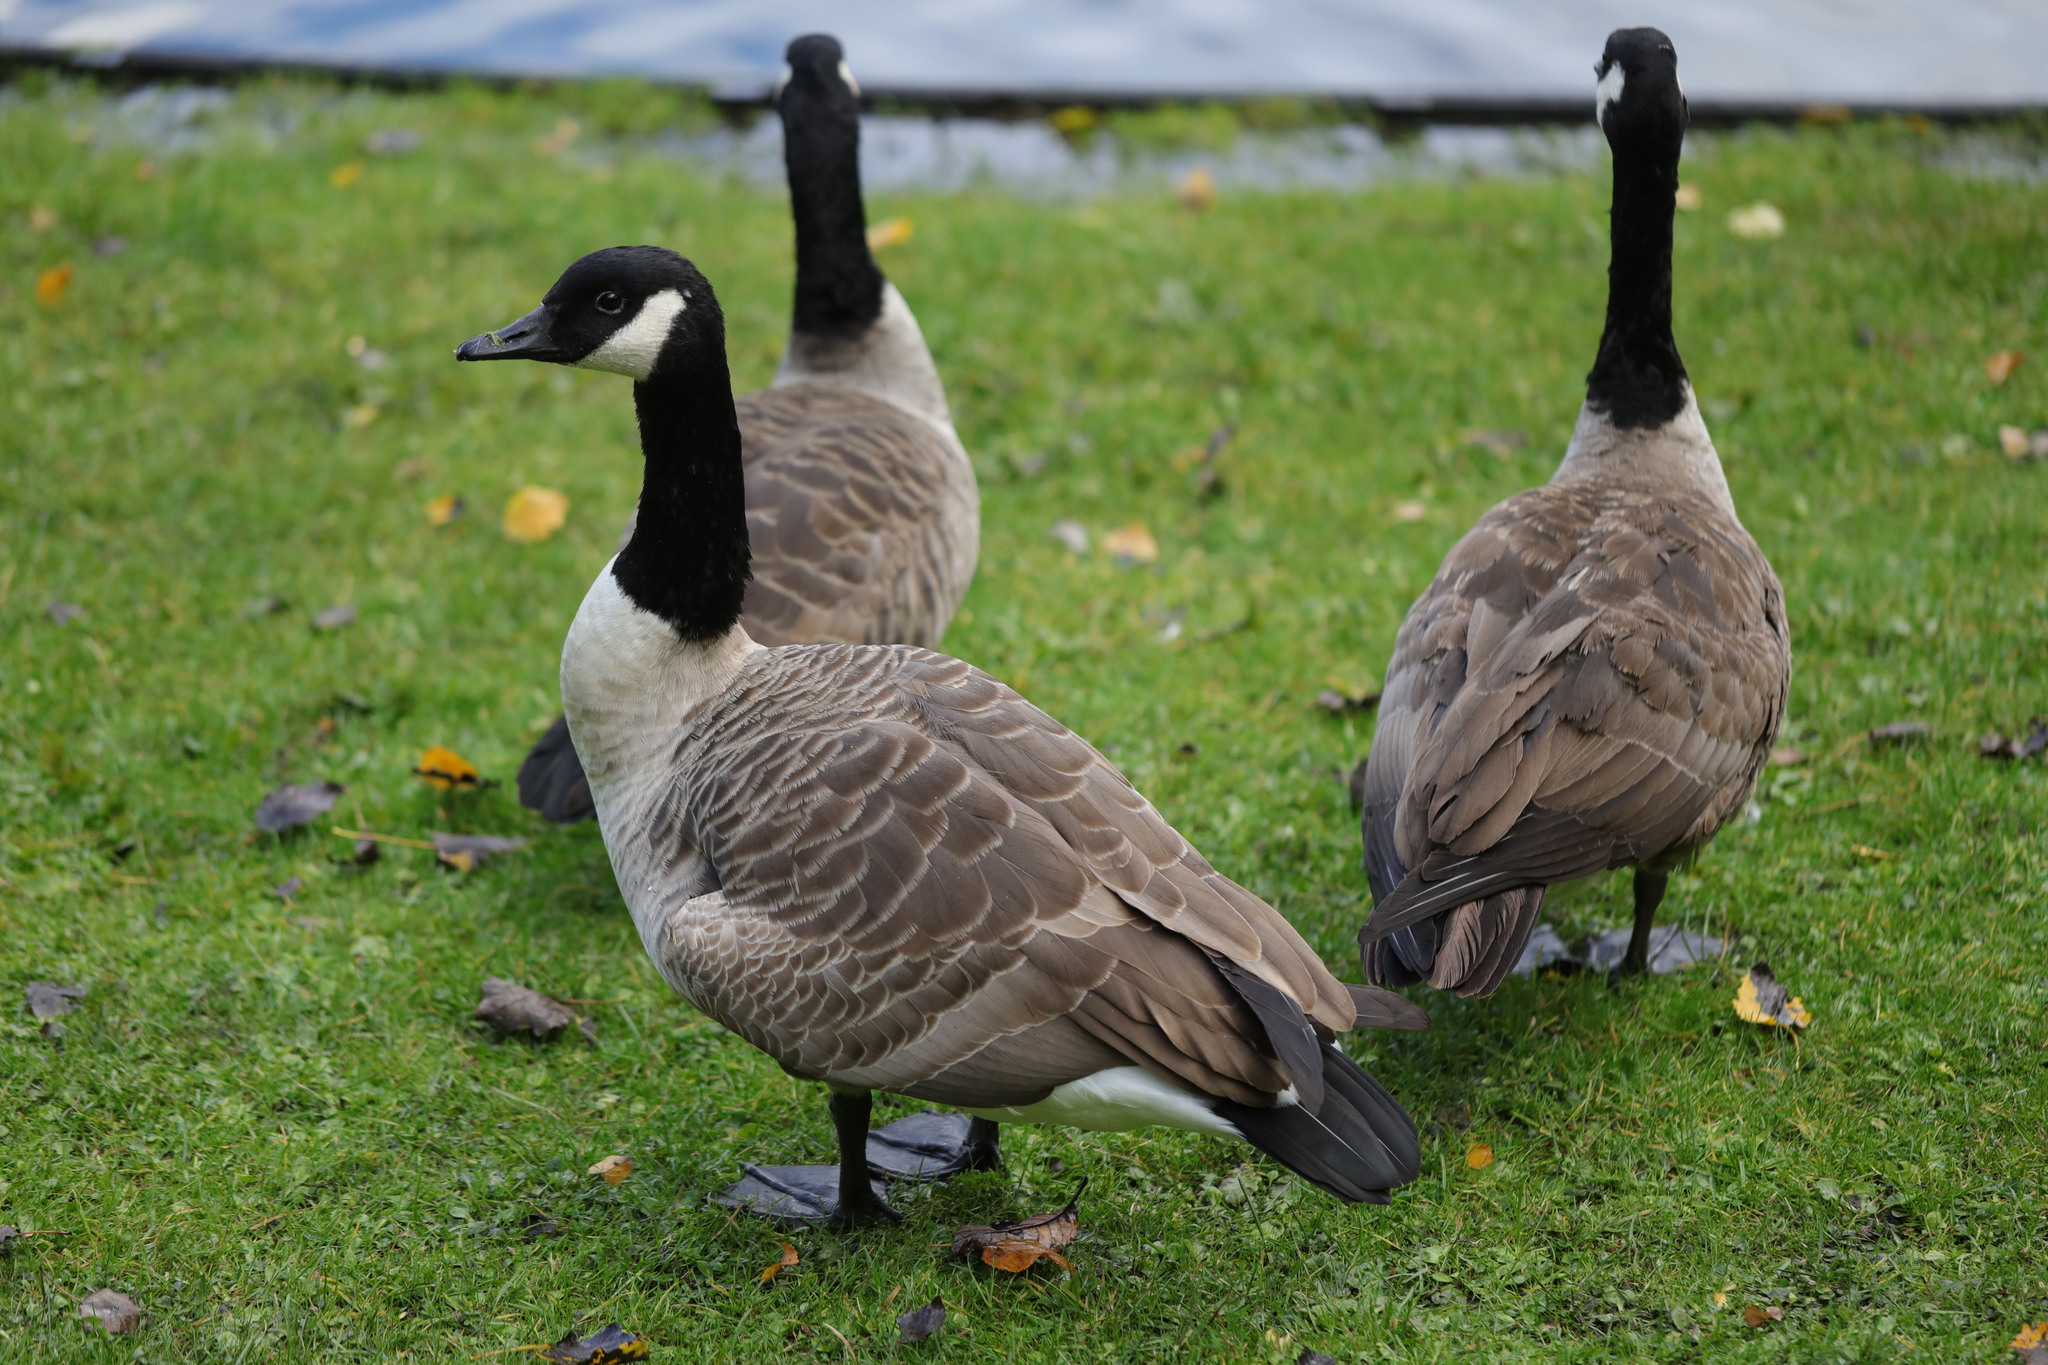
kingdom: Animalia
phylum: Chordata
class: Aves
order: Anseriformes
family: Anatidae
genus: Branta
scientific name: Branta canadensis
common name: Canada goose
